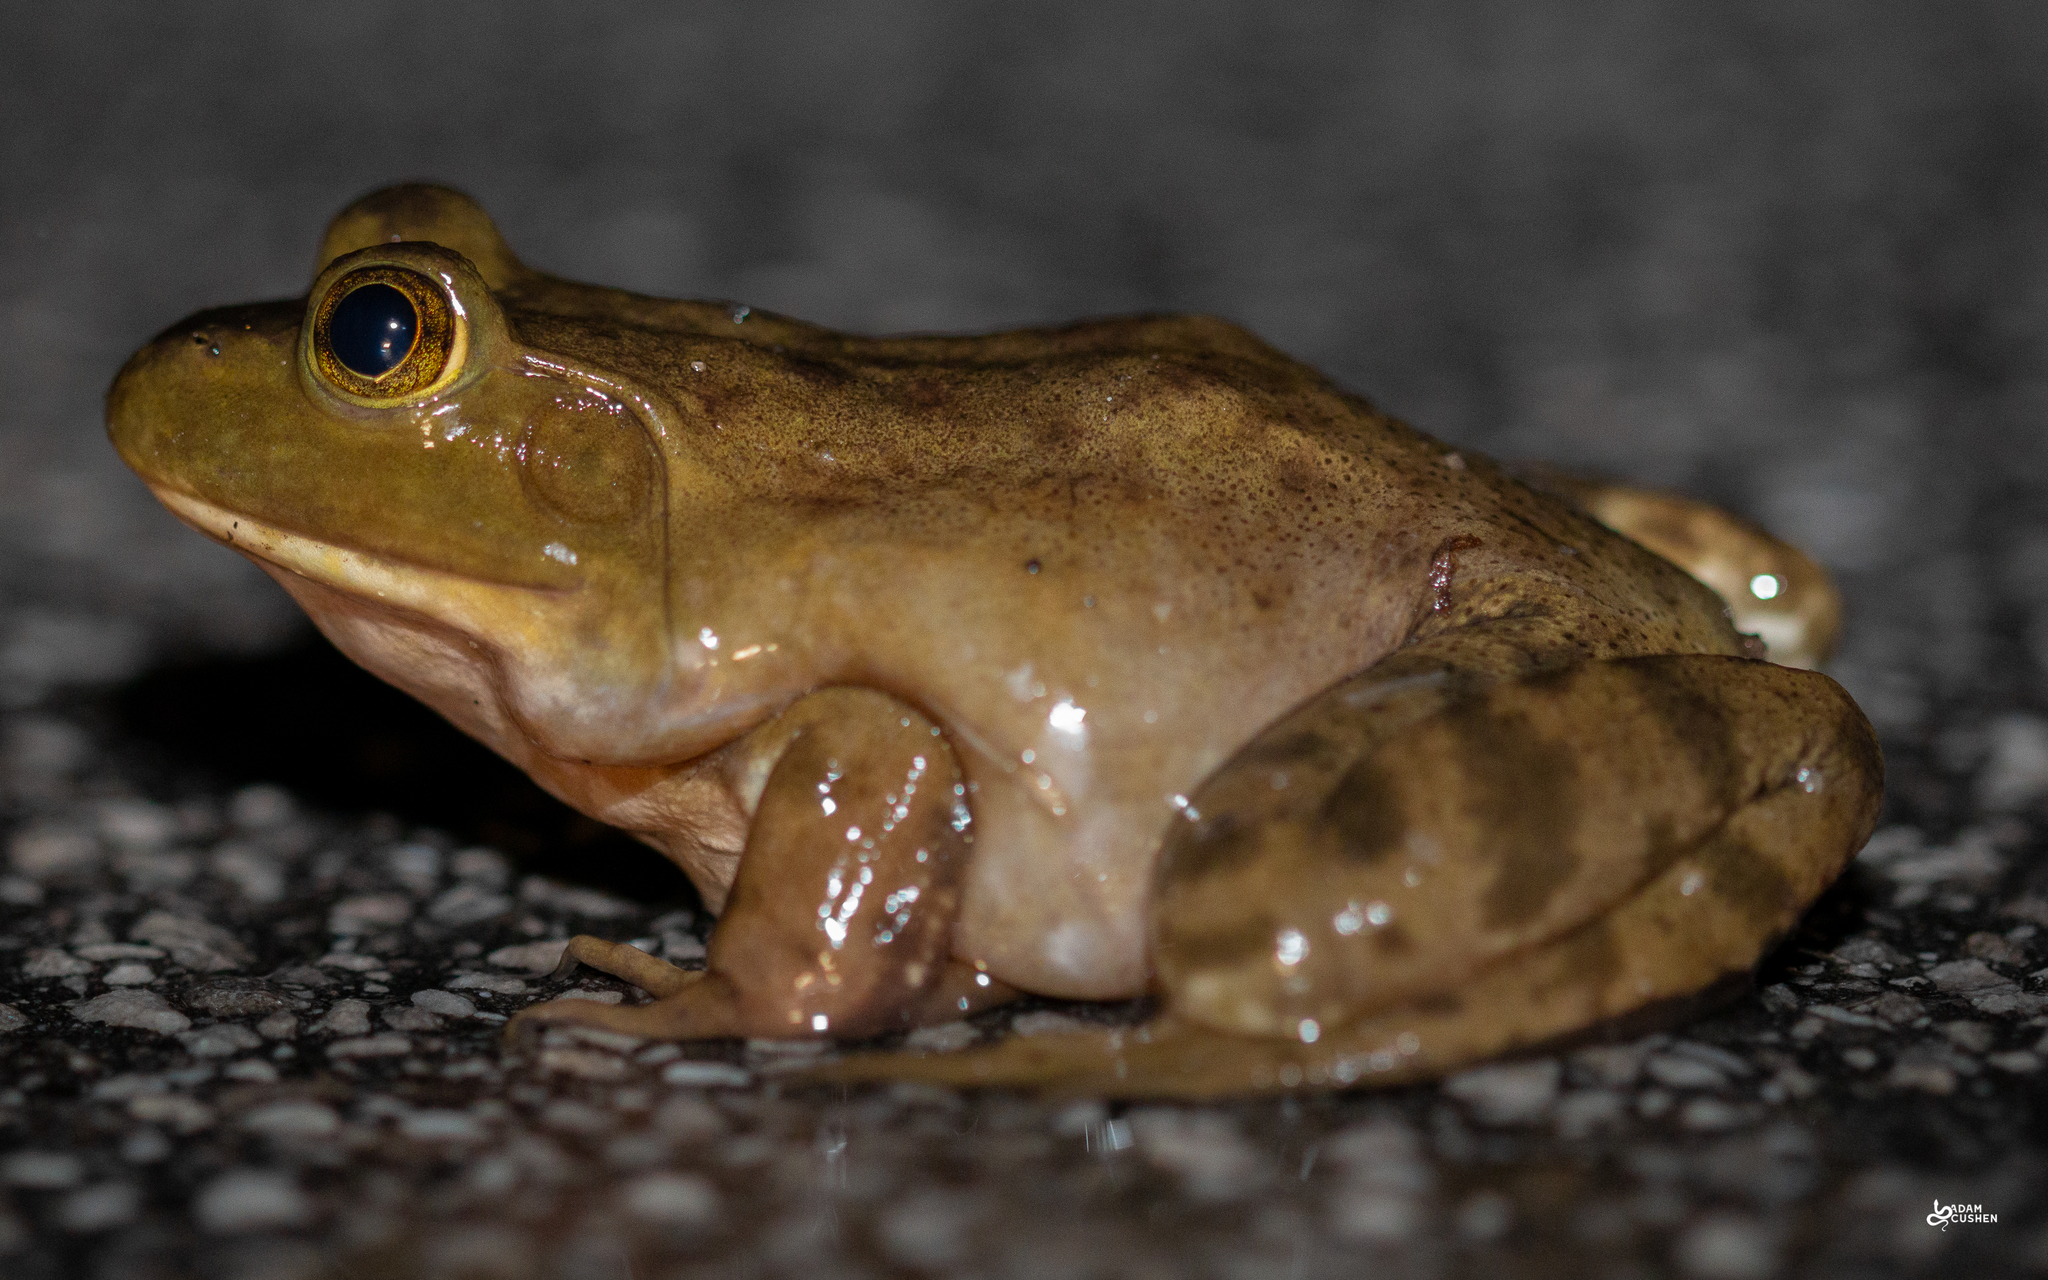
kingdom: Animalia
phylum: Chordata
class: Amphibia
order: Anura
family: Ranidae
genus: Lithobates
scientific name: Lithobates catesbeianus
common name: American bullfrog
